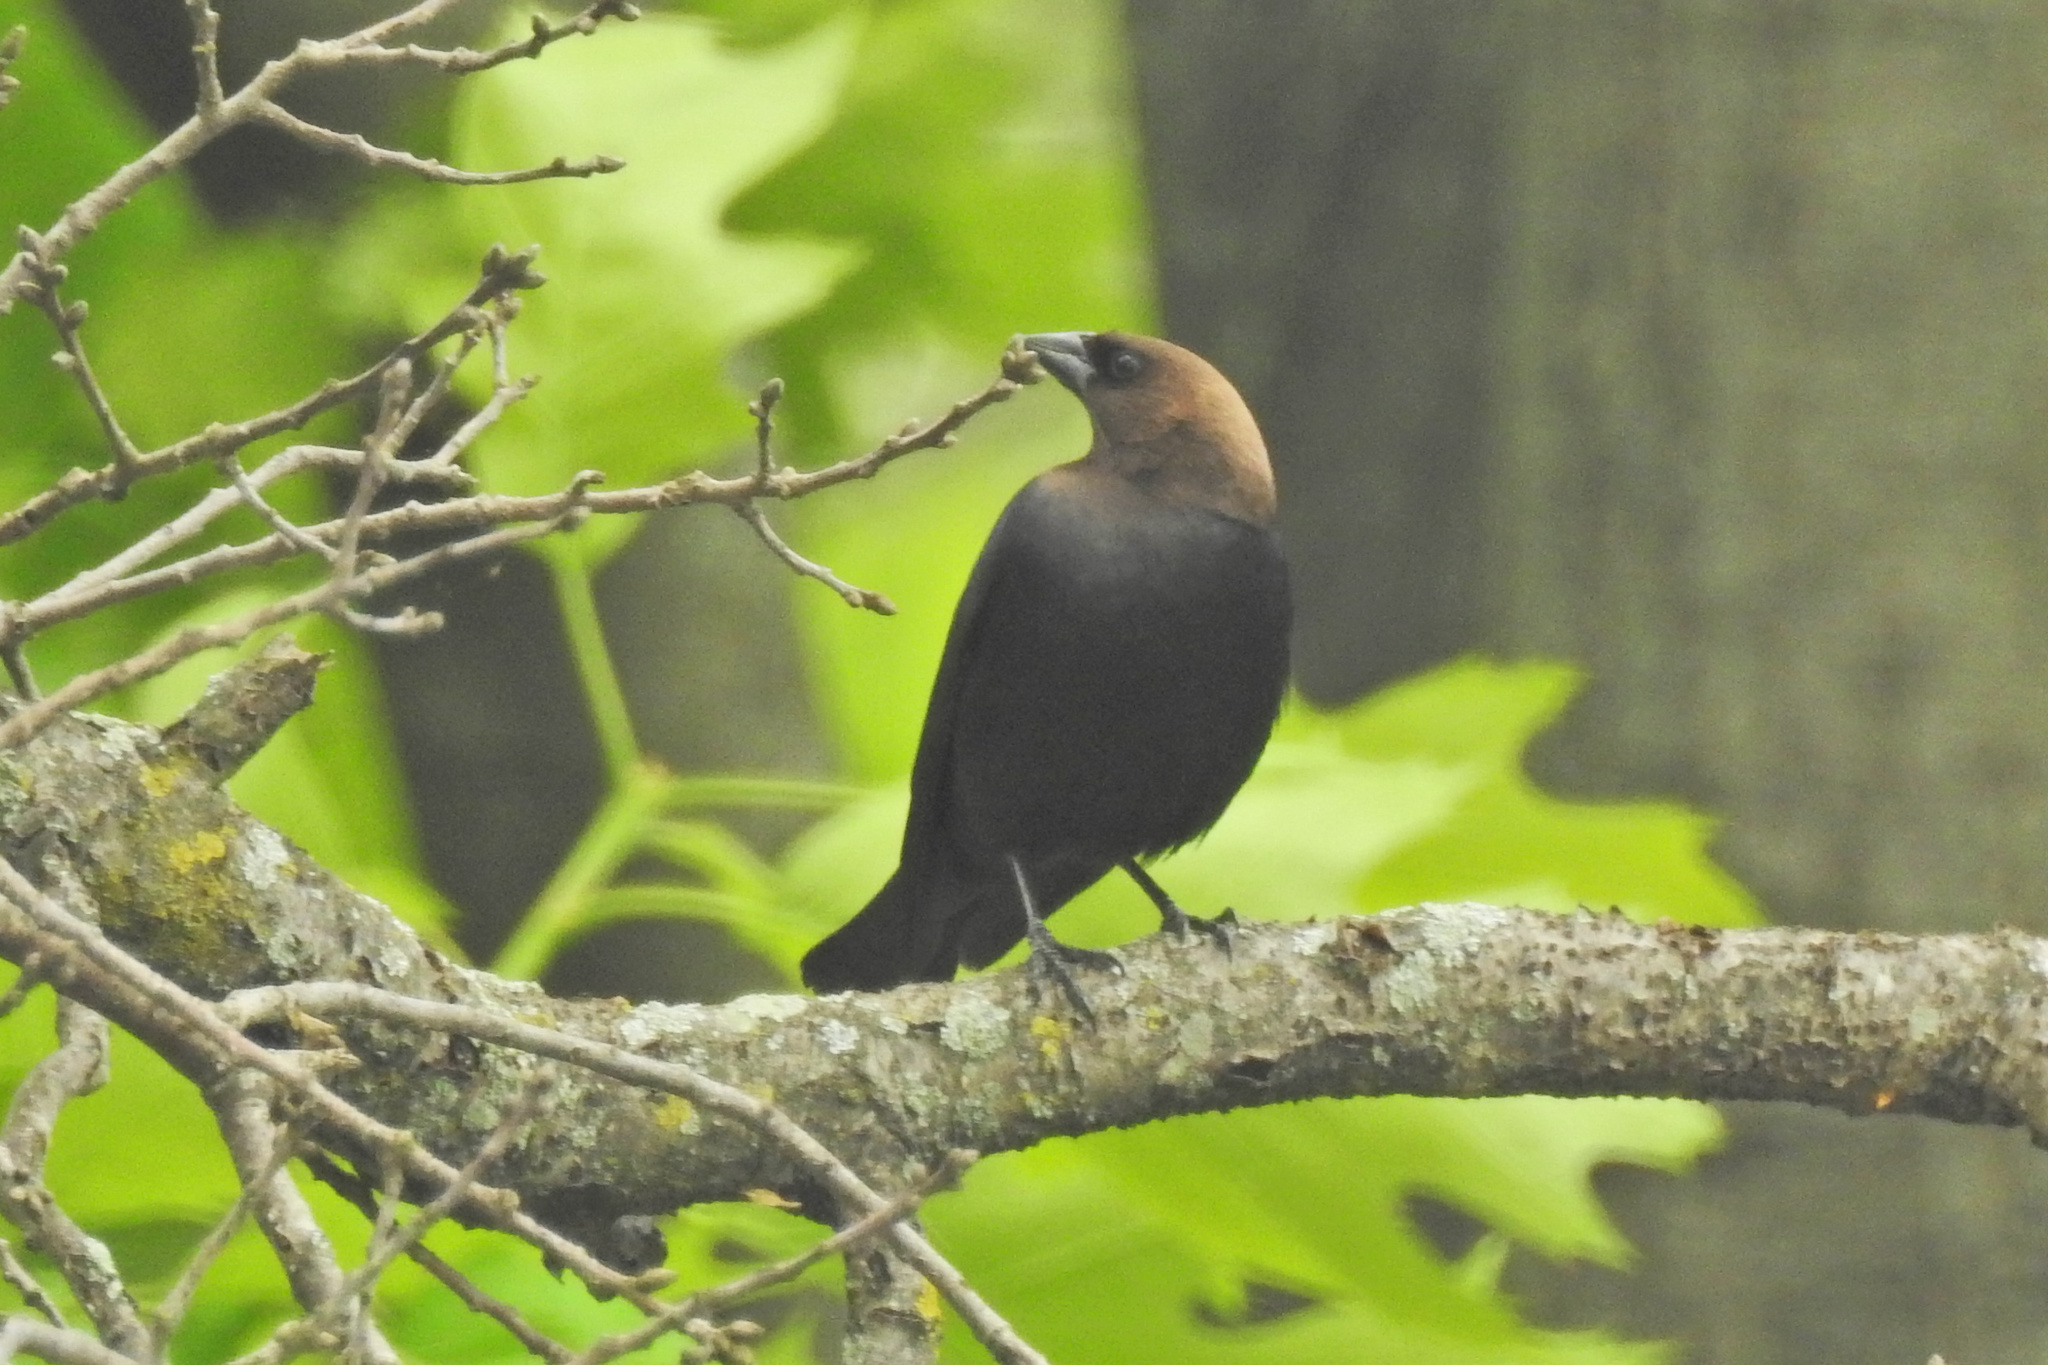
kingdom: Animalia
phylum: Chordata
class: Aves
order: Passeriformes
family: Icteridae
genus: Molothrus
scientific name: Molothrus ater
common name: Brown-headed cowbird
